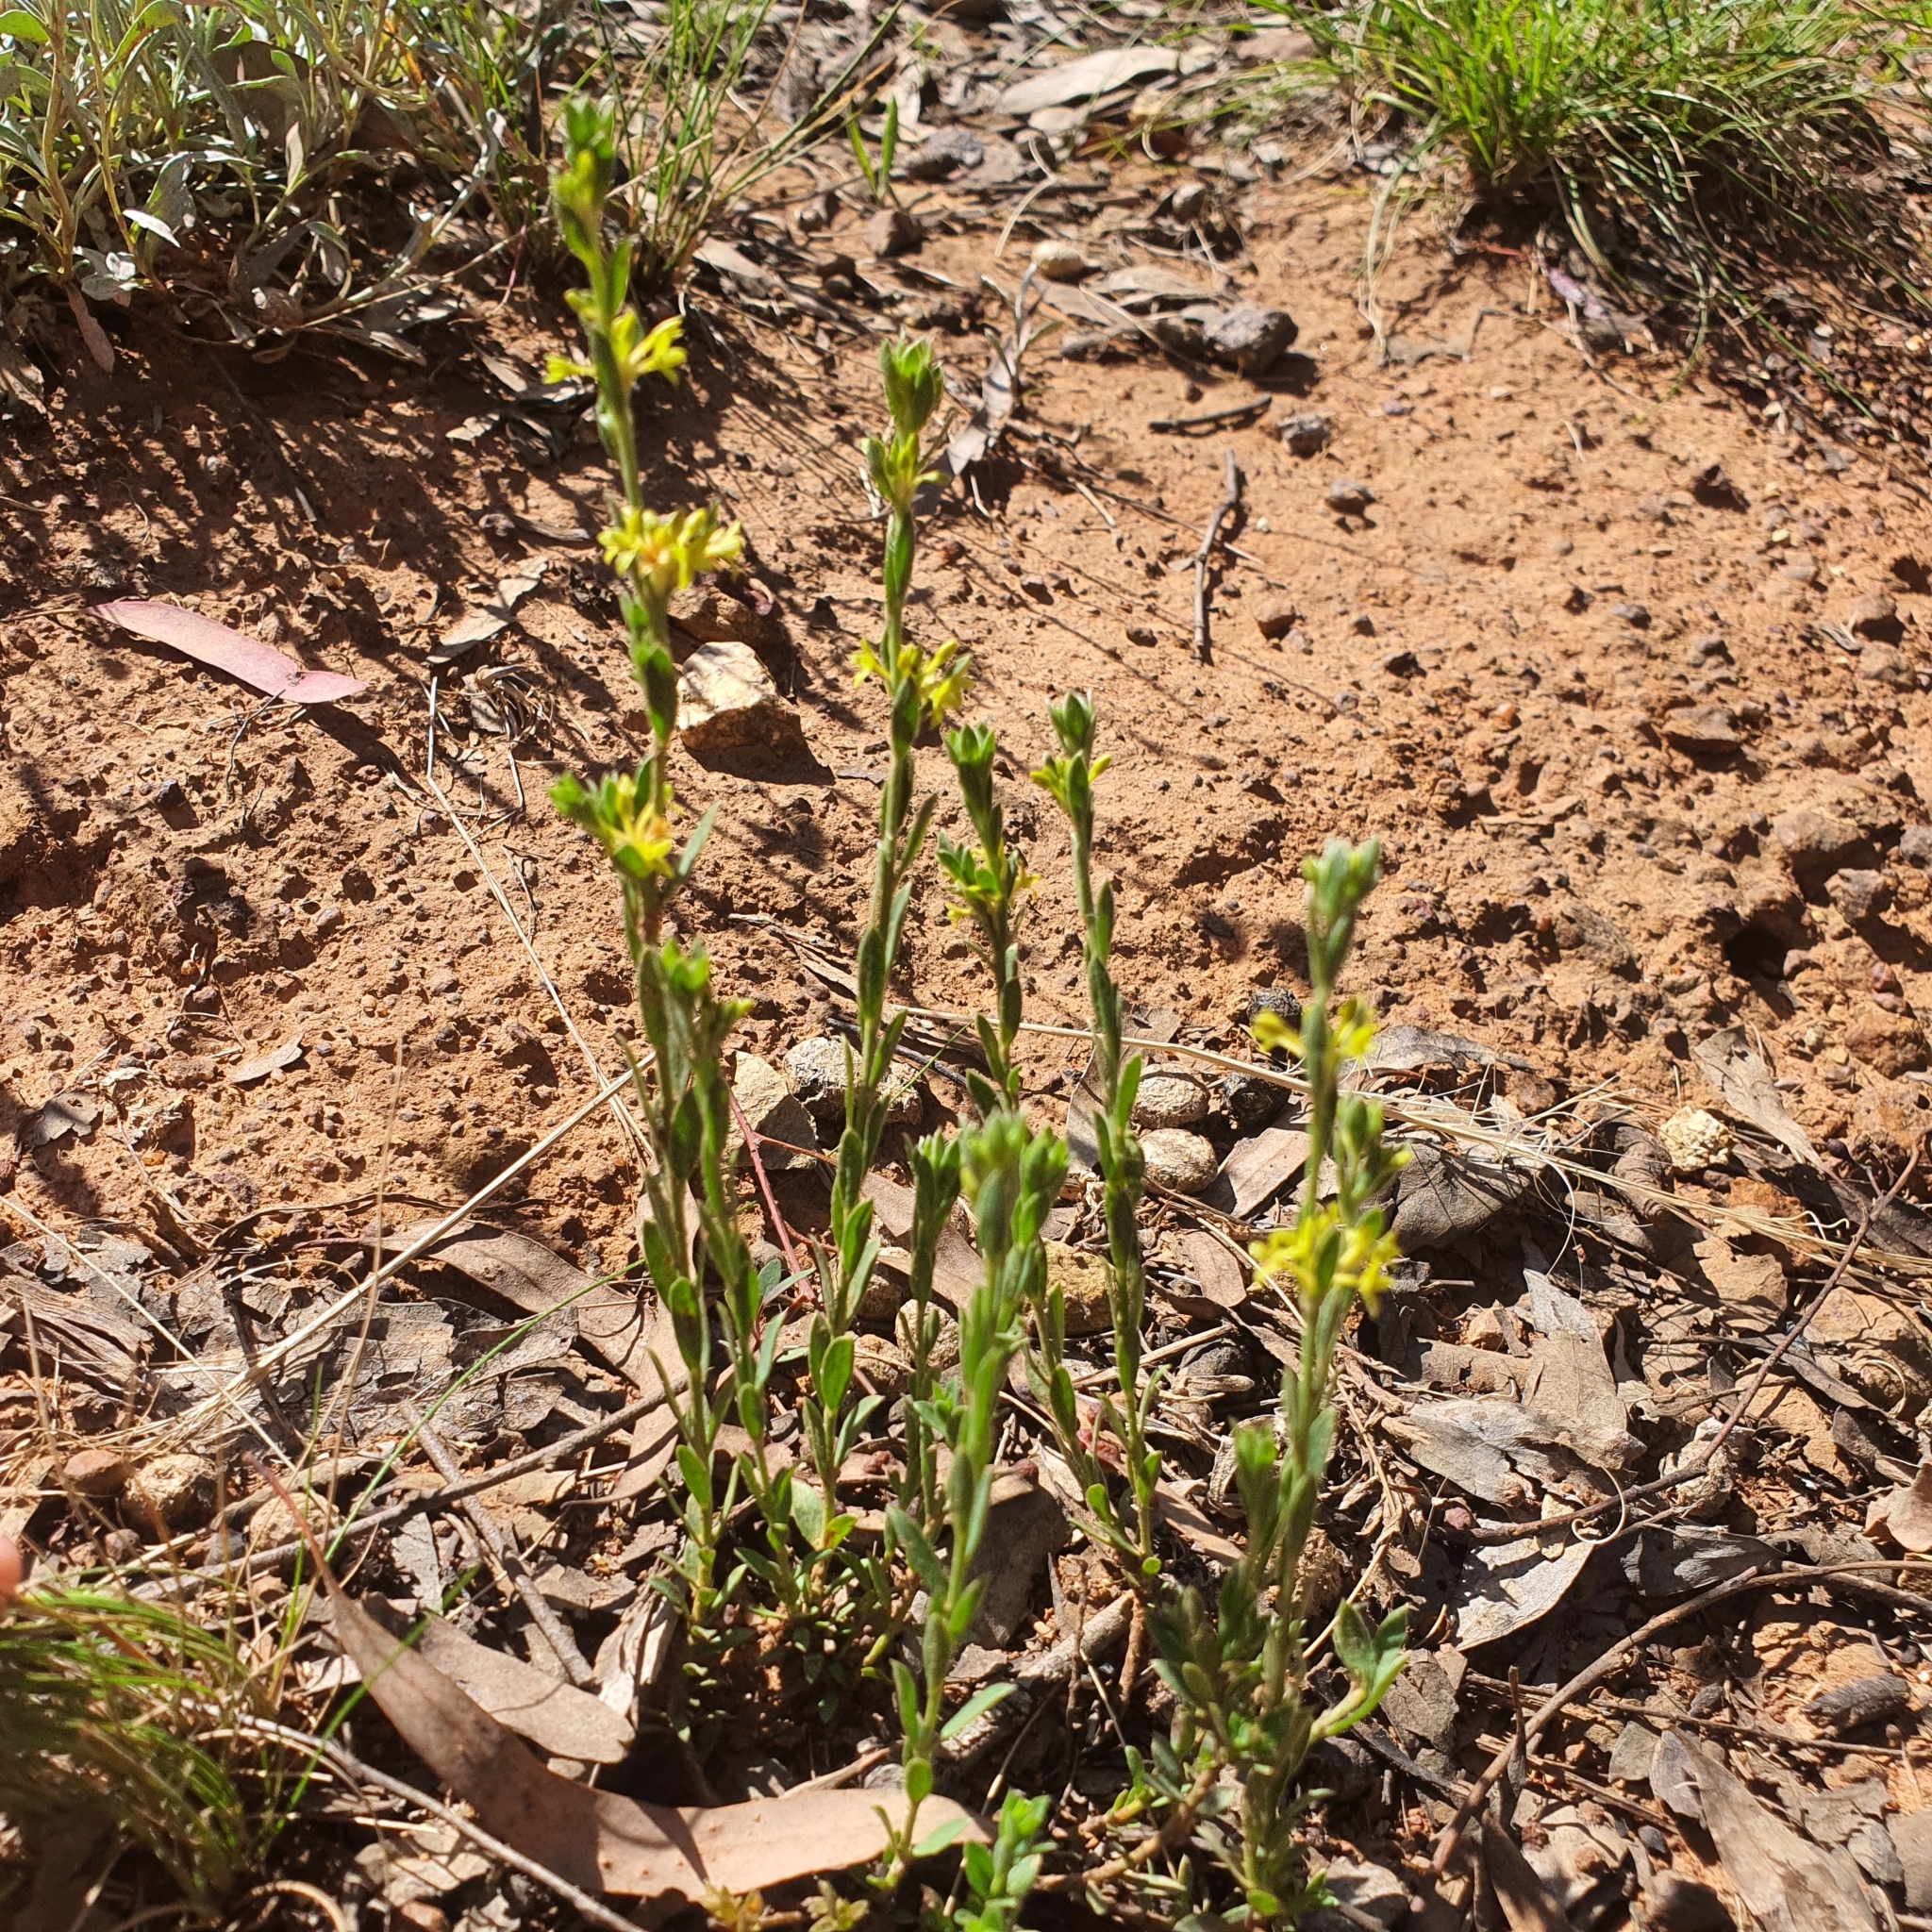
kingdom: Plantae
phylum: Tracheophyta
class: Magnoliopsida
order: Malvales
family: Thymelaeaceae
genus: Pimelea
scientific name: Pimelea curviflora
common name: Curved riceflower
